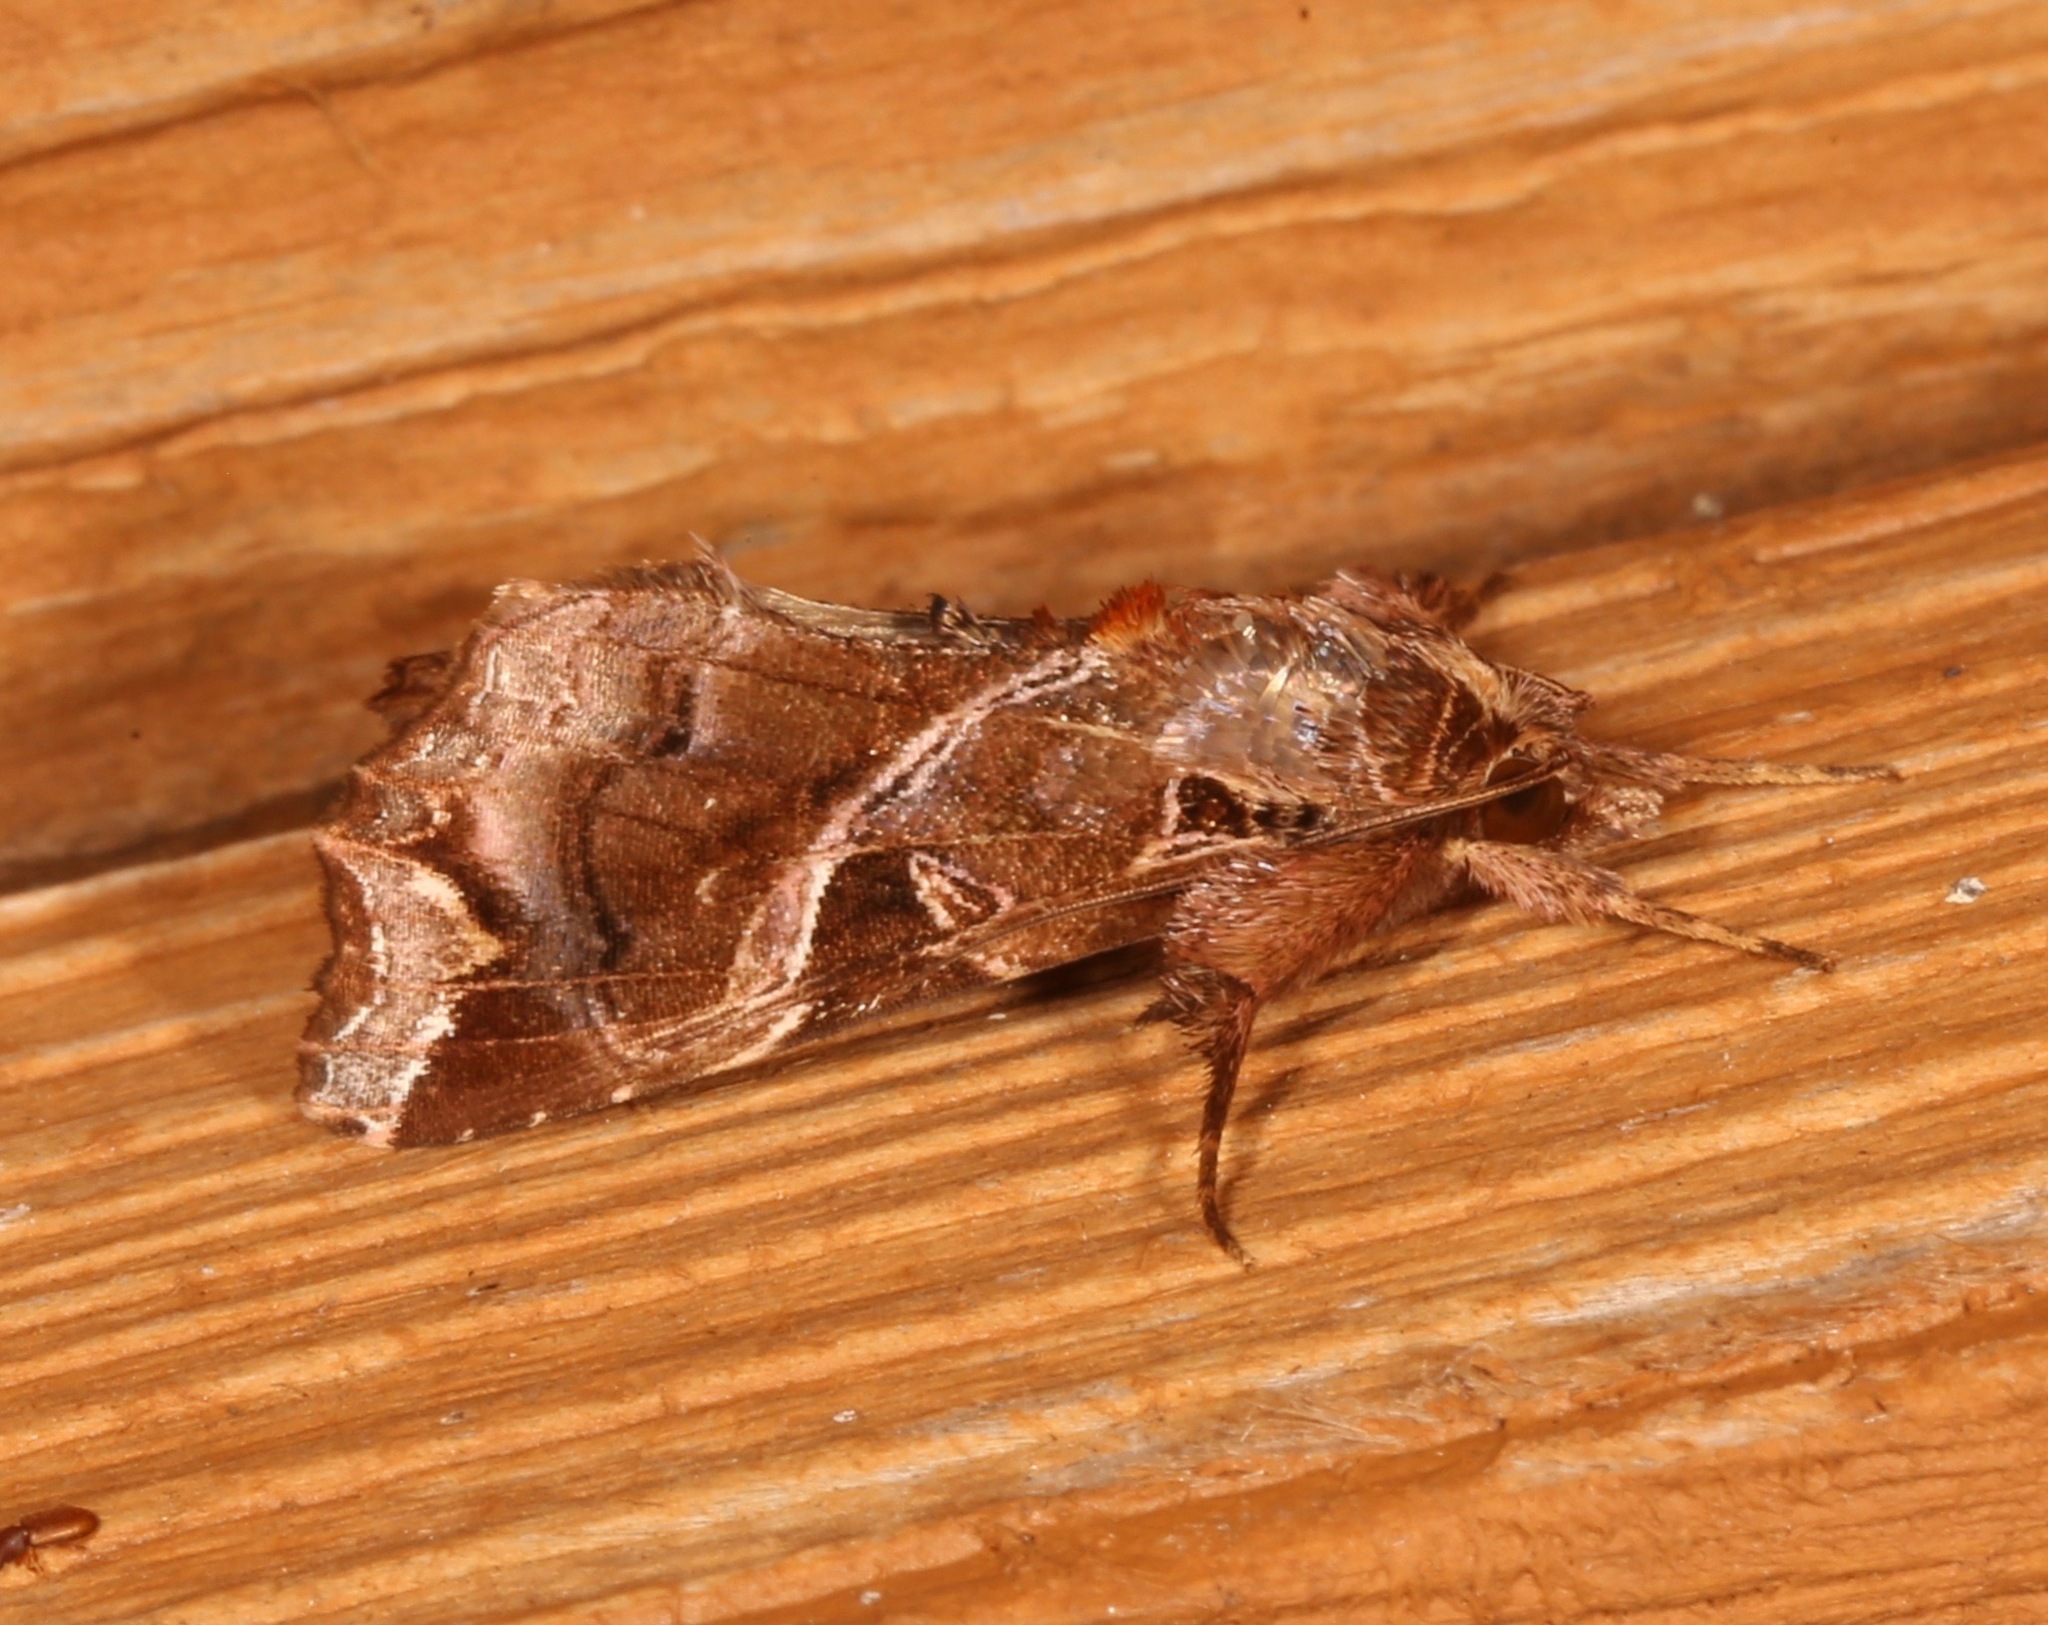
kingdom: Animalia
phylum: Arthropoda
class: Insecta
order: Lepidoptera
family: Noctuidae
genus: Callopistria
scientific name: Callopistria floridensis
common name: Florida fern moth
